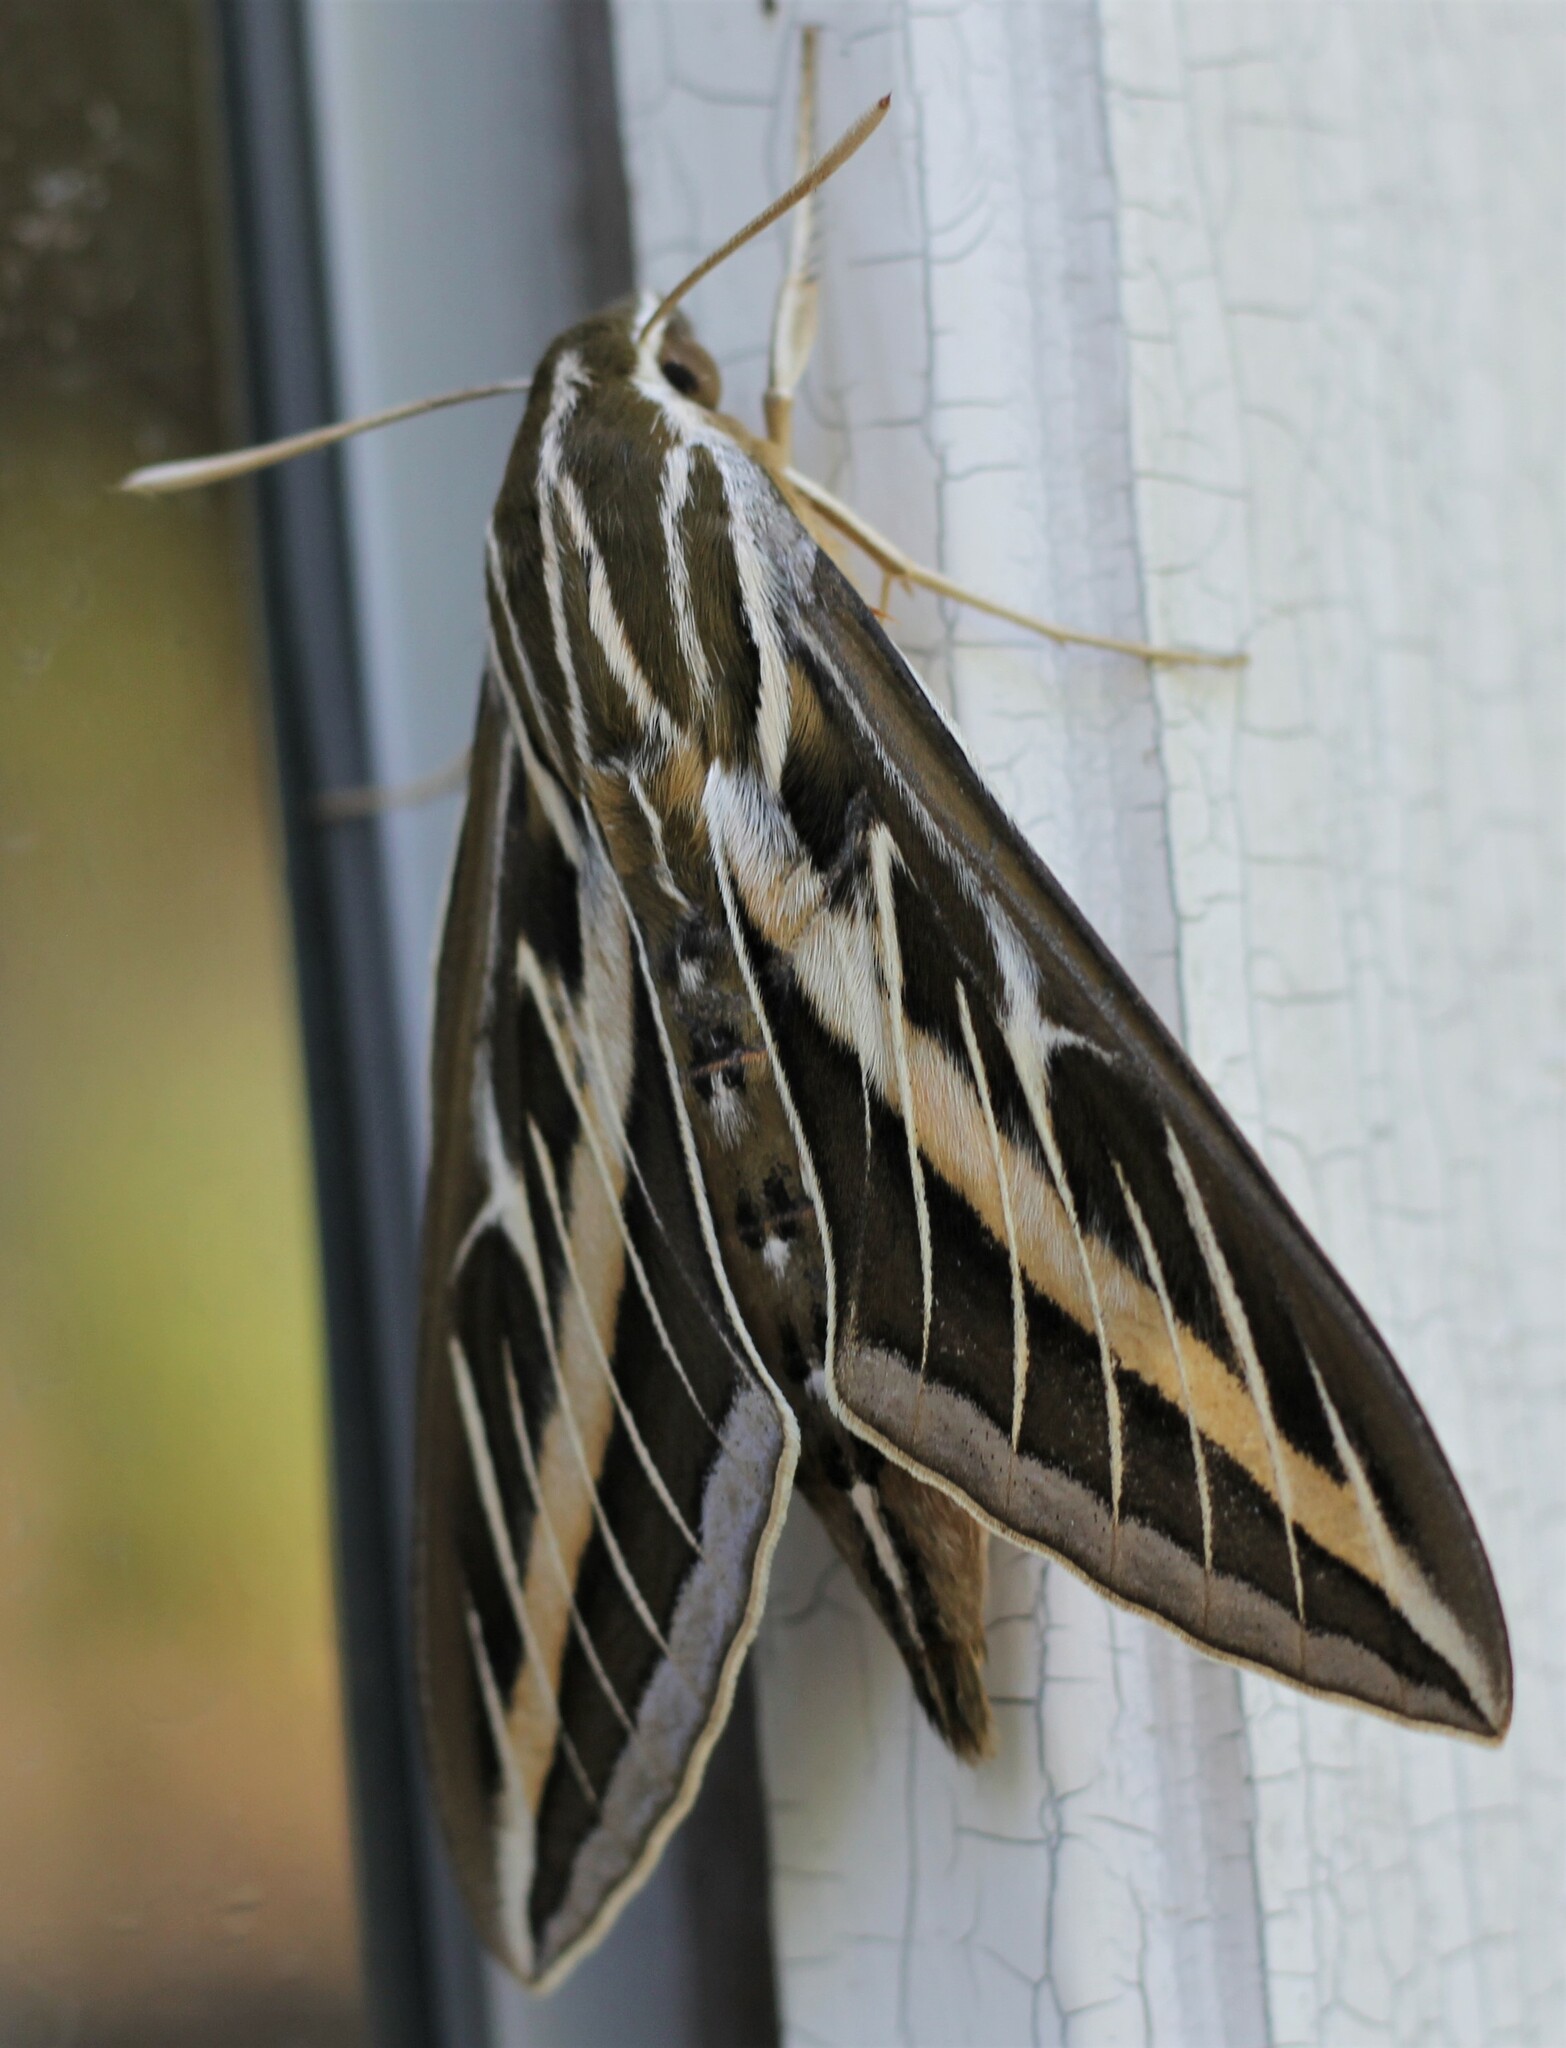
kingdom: Animalia
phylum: Arthropoda
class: Insecta
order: Lepidoptera
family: Sphingidae
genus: Hyles
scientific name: Hyles lineata
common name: White-lined sphinx
